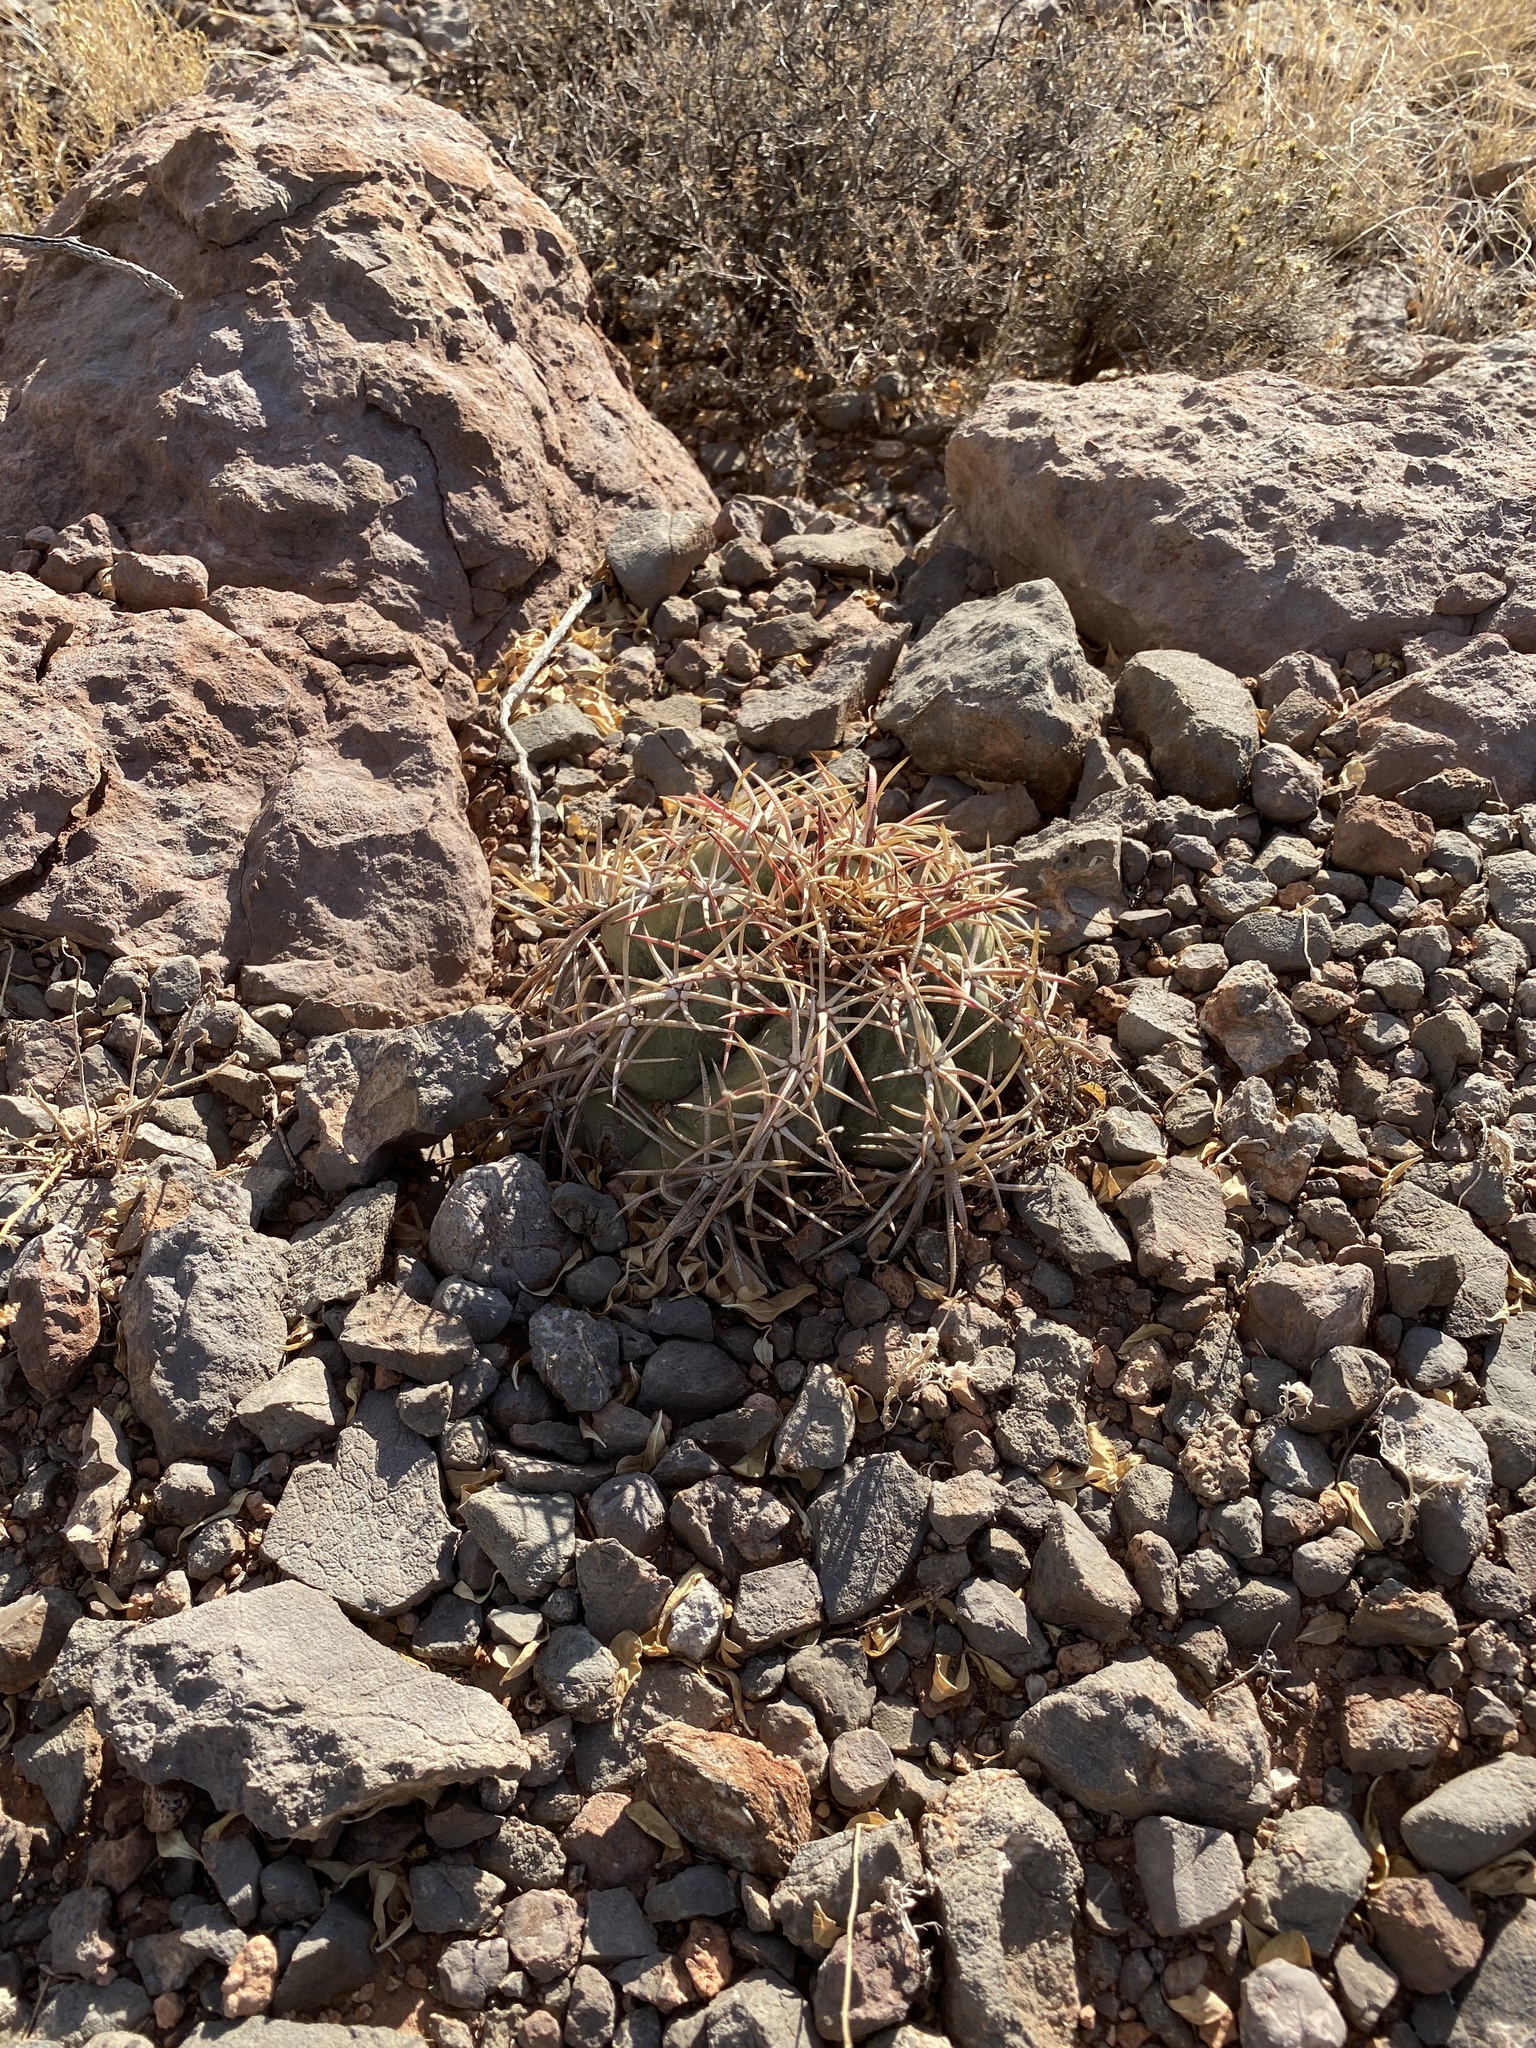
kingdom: Plantae
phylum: Tracheophyta
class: Magnoliopsida
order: Caryophyllales
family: Cactaceae
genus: Echinocactus
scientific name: Echinocactus horizonthalonius
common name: Devilshead
